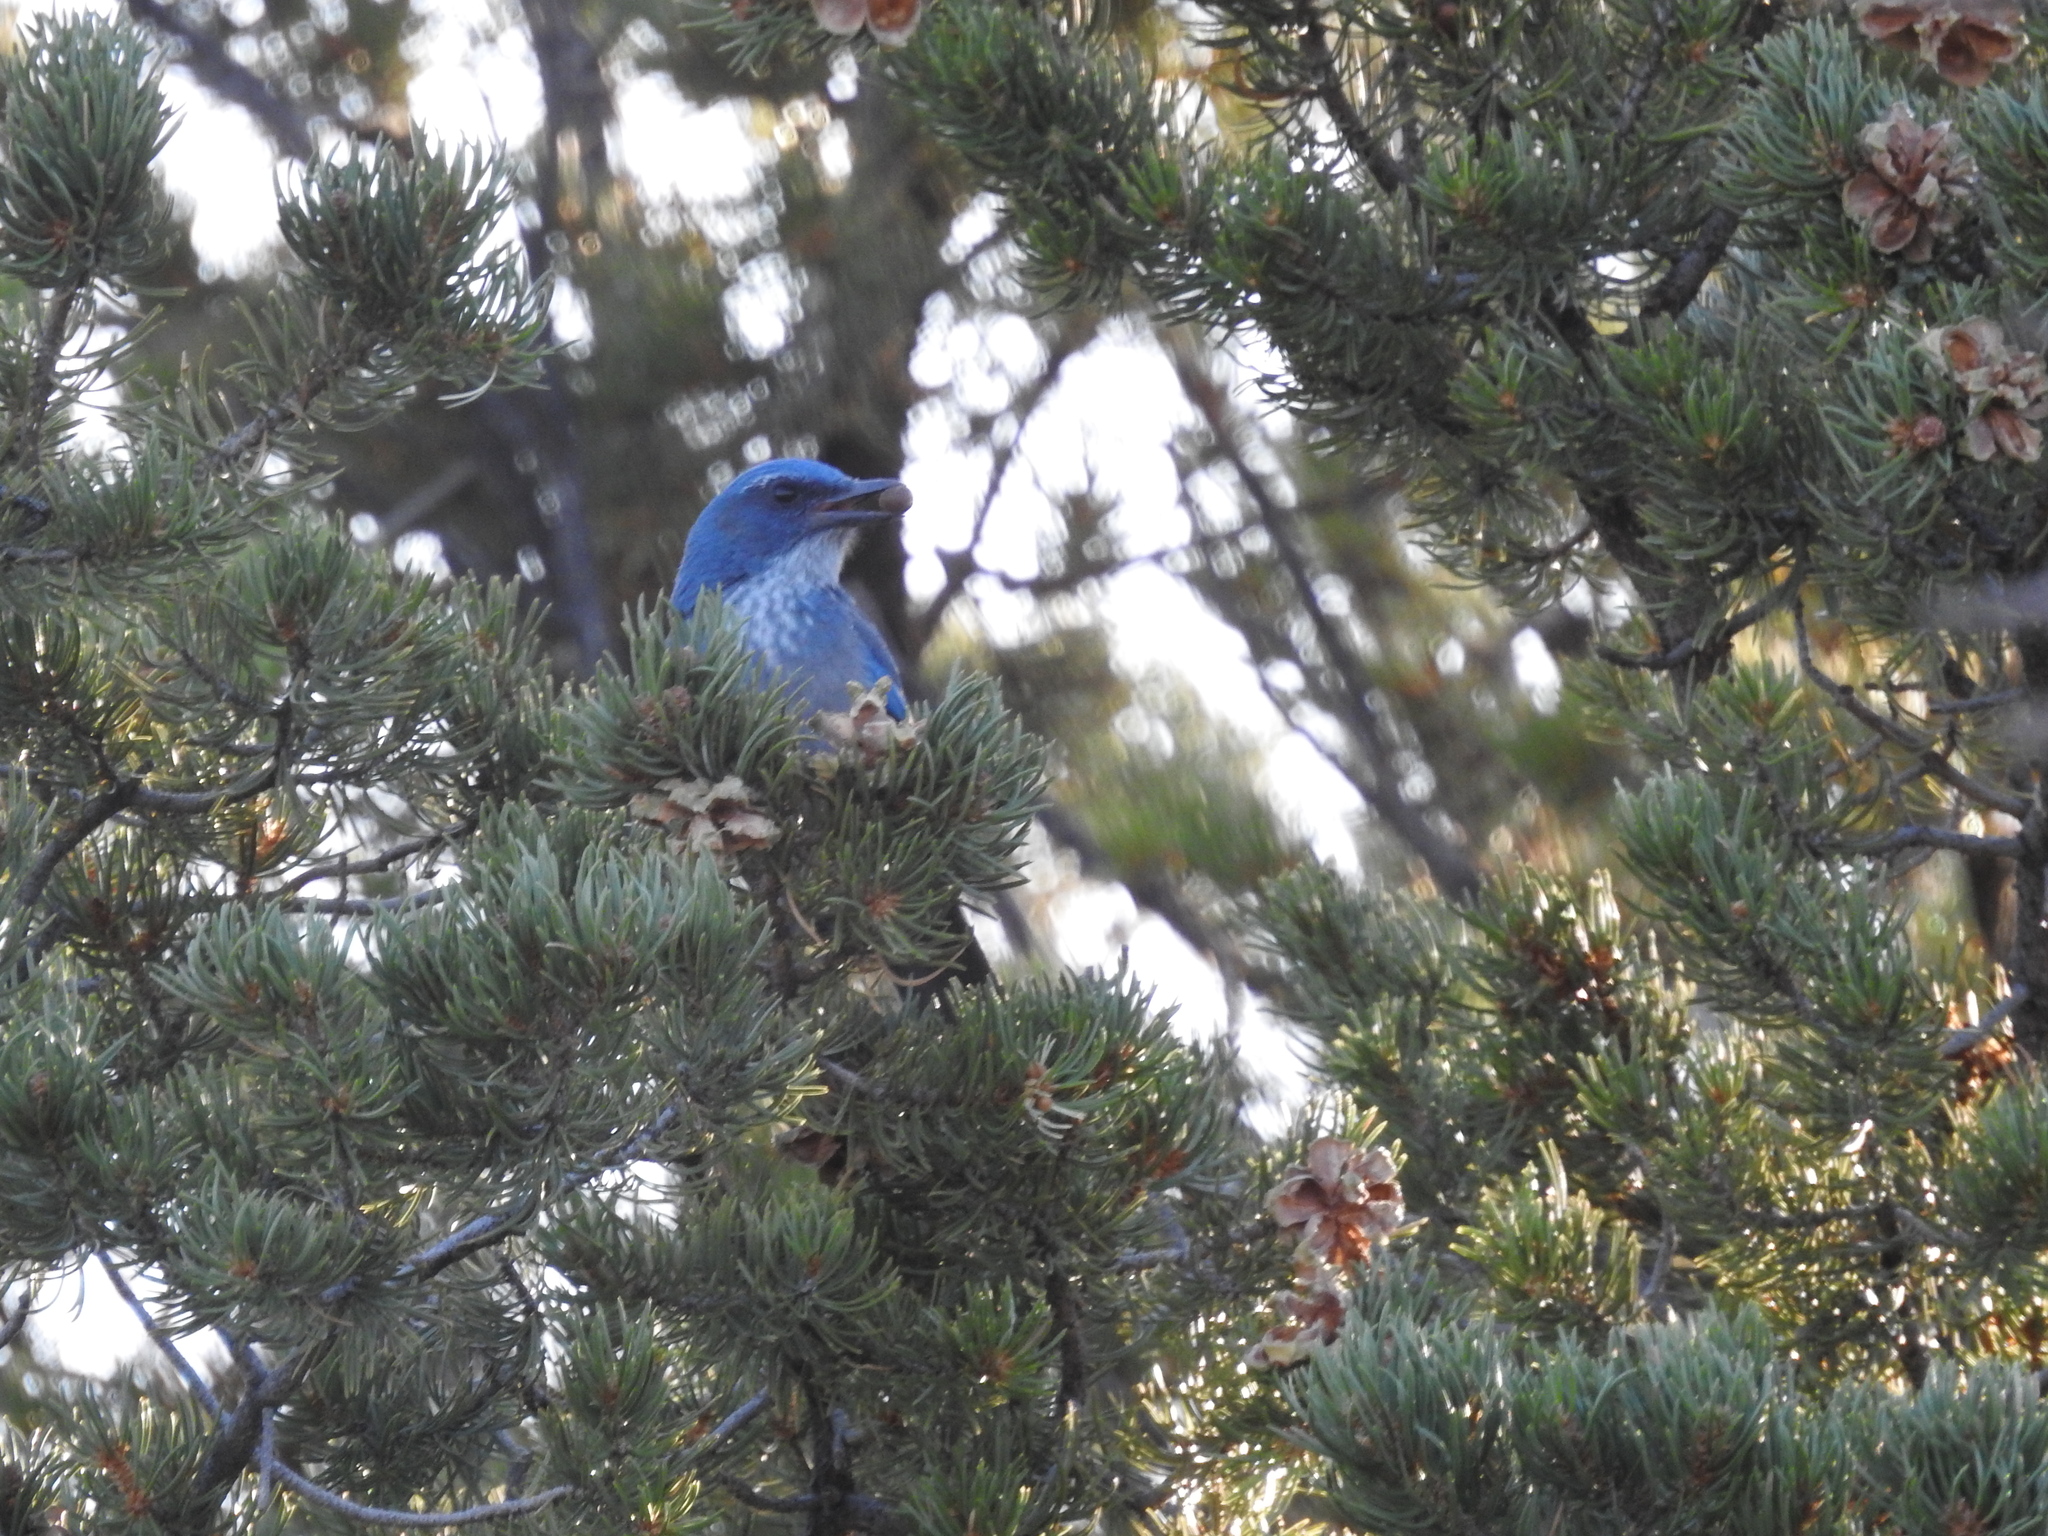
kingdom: Animalia
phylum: Chordata
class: Aves
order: Passeriformes
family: Corvidae
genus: Aphelocoma
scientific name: Aphelocoma woodhouseii
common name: Woodhouse's scrub-jay
